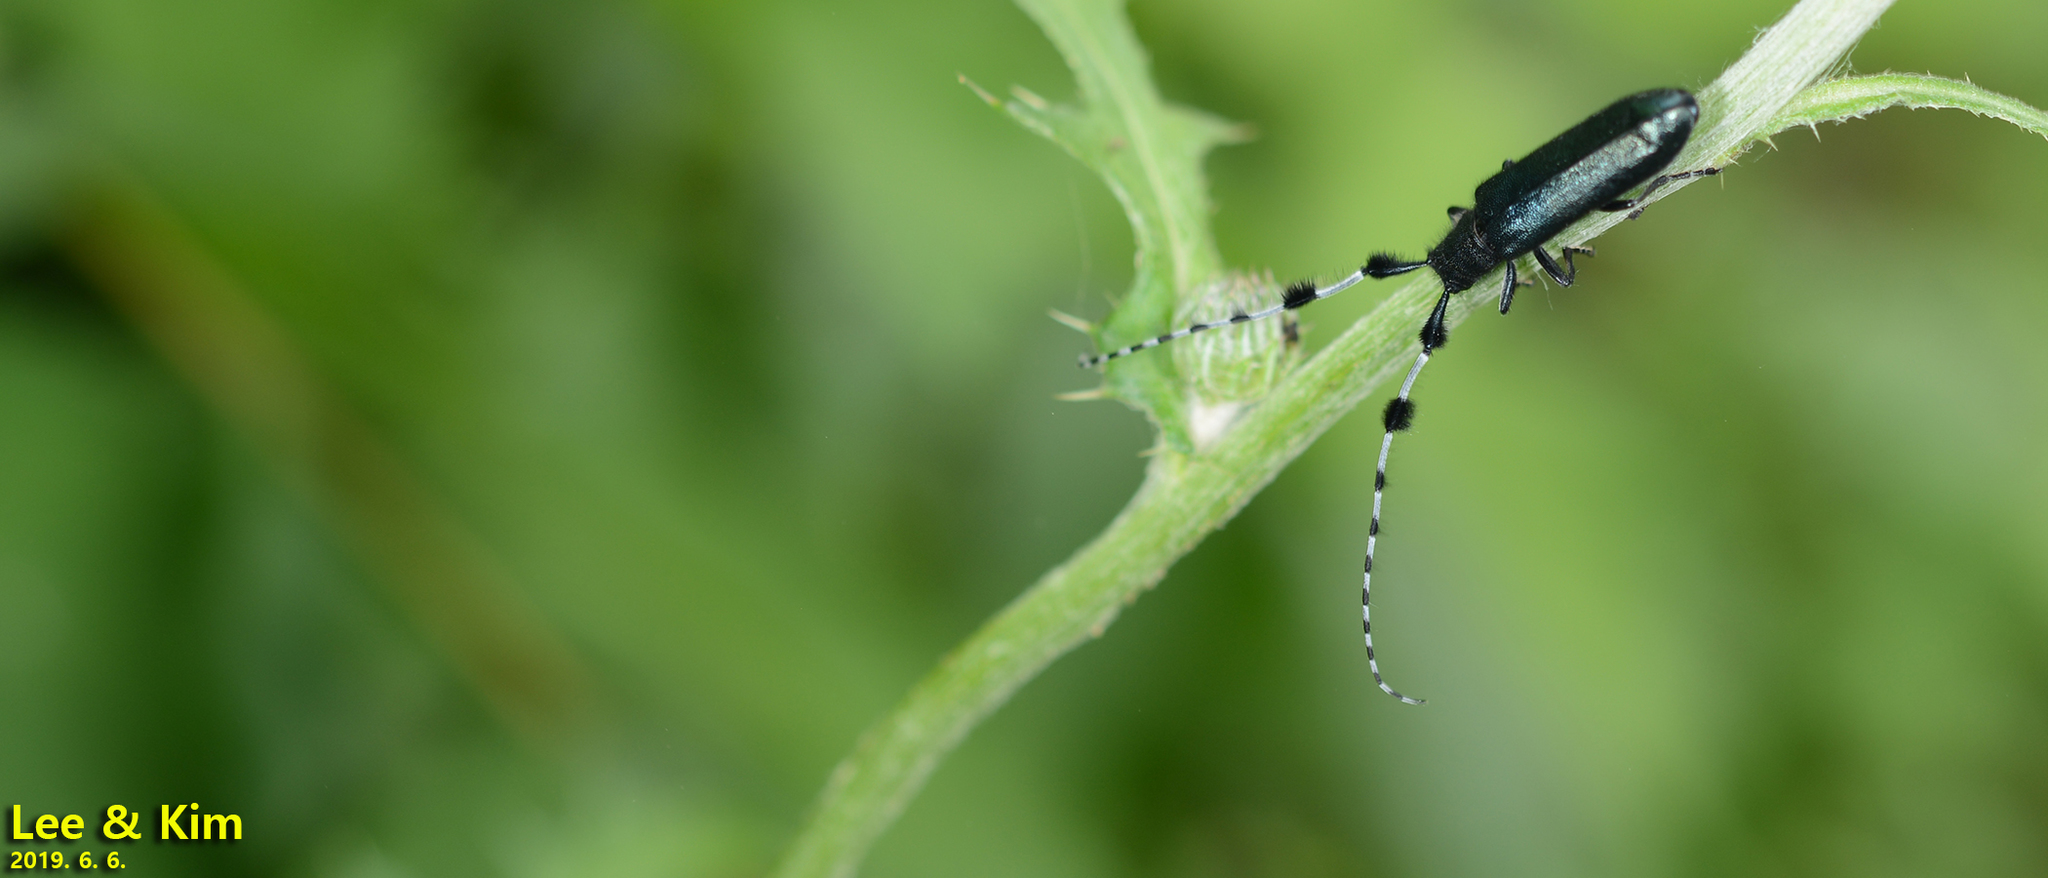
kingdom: Animalia
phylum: Arthropoda
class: Insecta
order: Coleoptera
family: Cerambycidae
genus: Agapanthia
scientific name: Agapanthia amurensis
